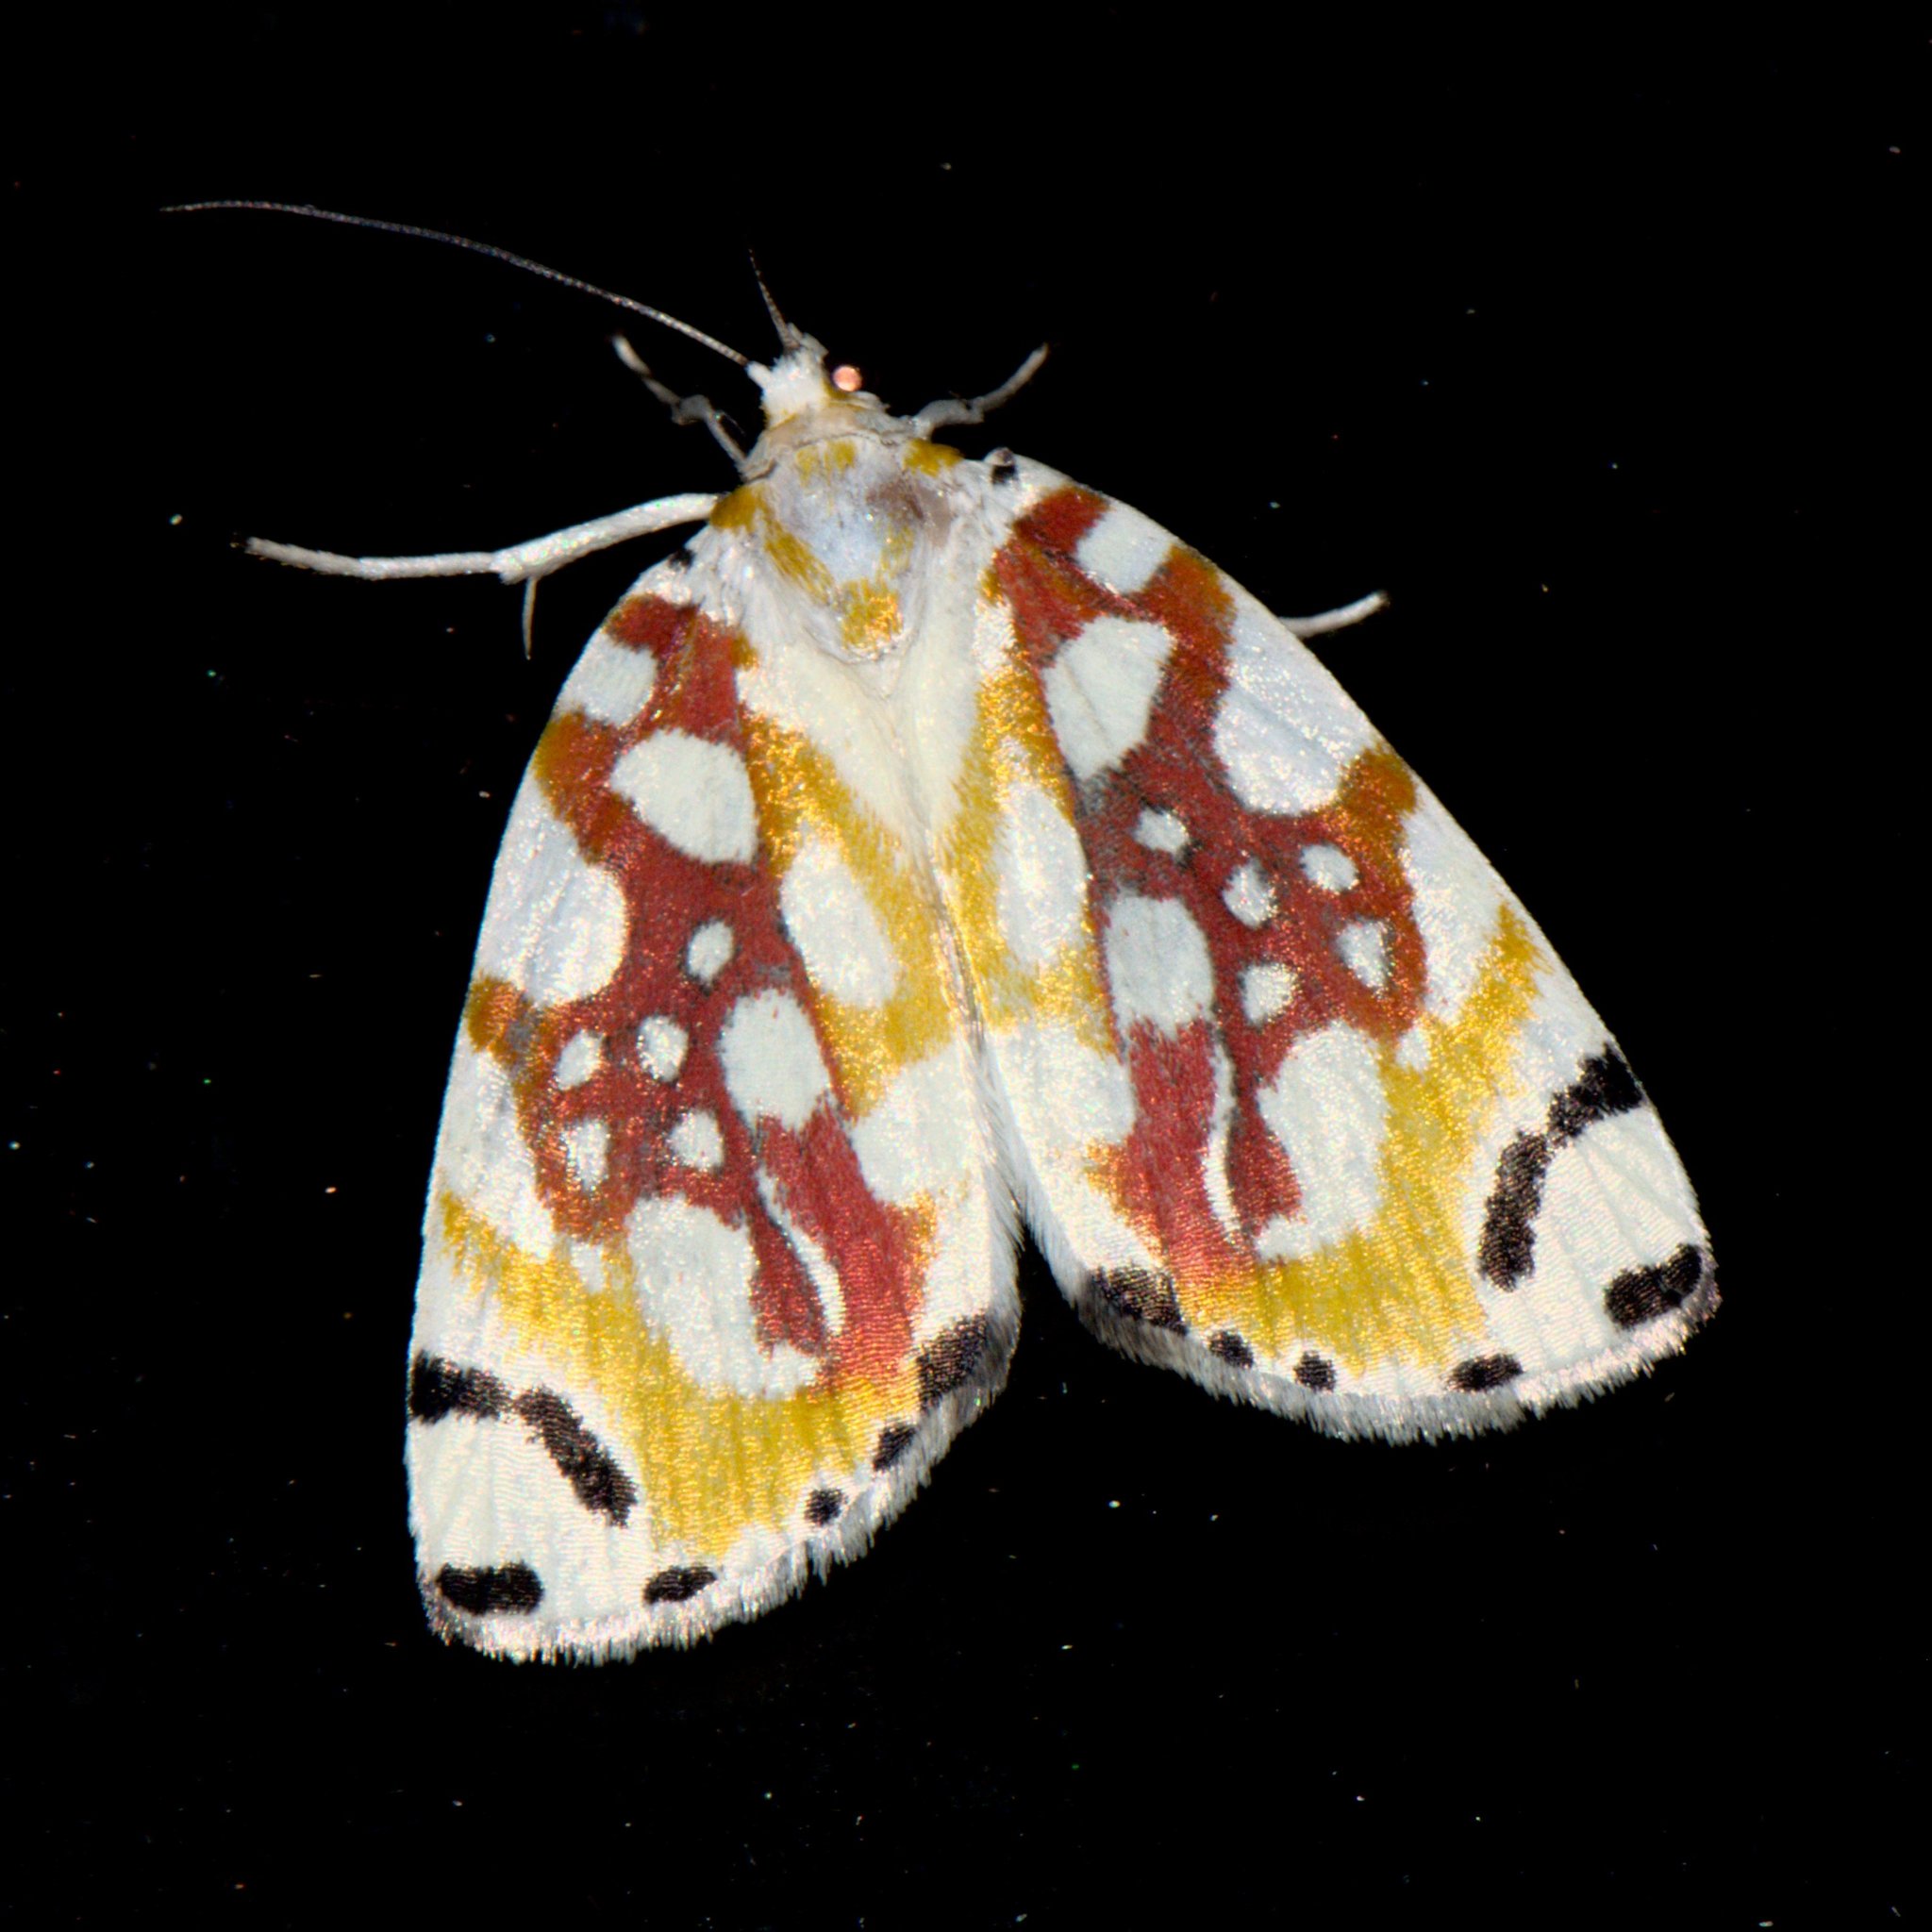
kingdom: Animalia
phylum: Arthropoda
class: Insecta
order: Lepidoptera
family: Nolidae
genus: Sinna
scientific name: Sinna dohertyi
